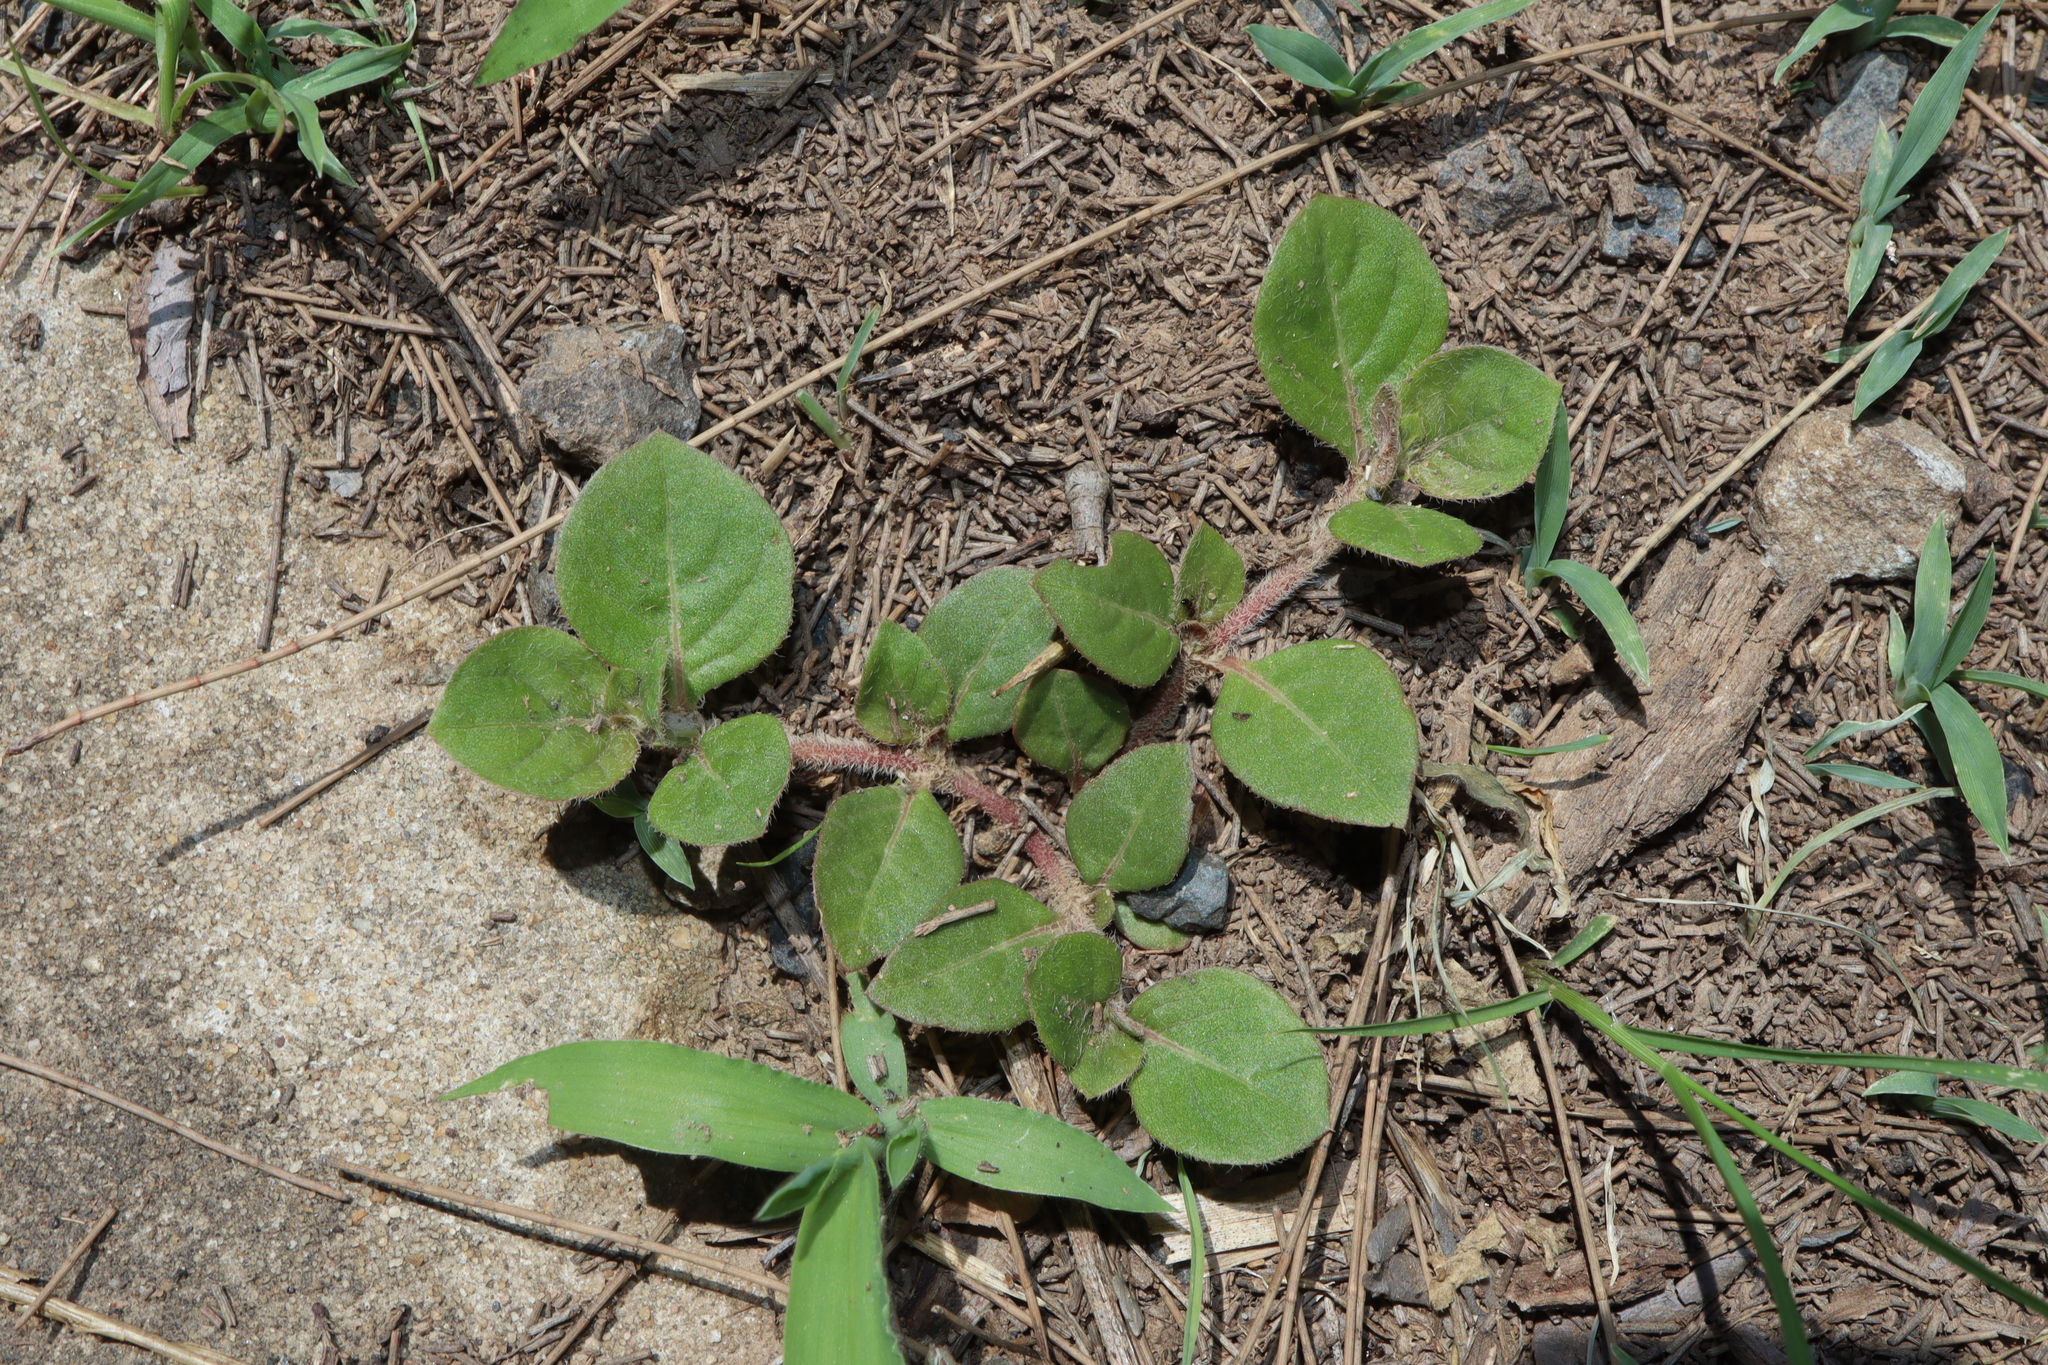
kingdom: Plantae
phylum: Tracheophyta
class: Magnoliopsida
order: Caryophyllales
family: Amaranthaceae
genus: Alternanthera
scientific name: Alternanthera pungens
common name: Khakiweed
